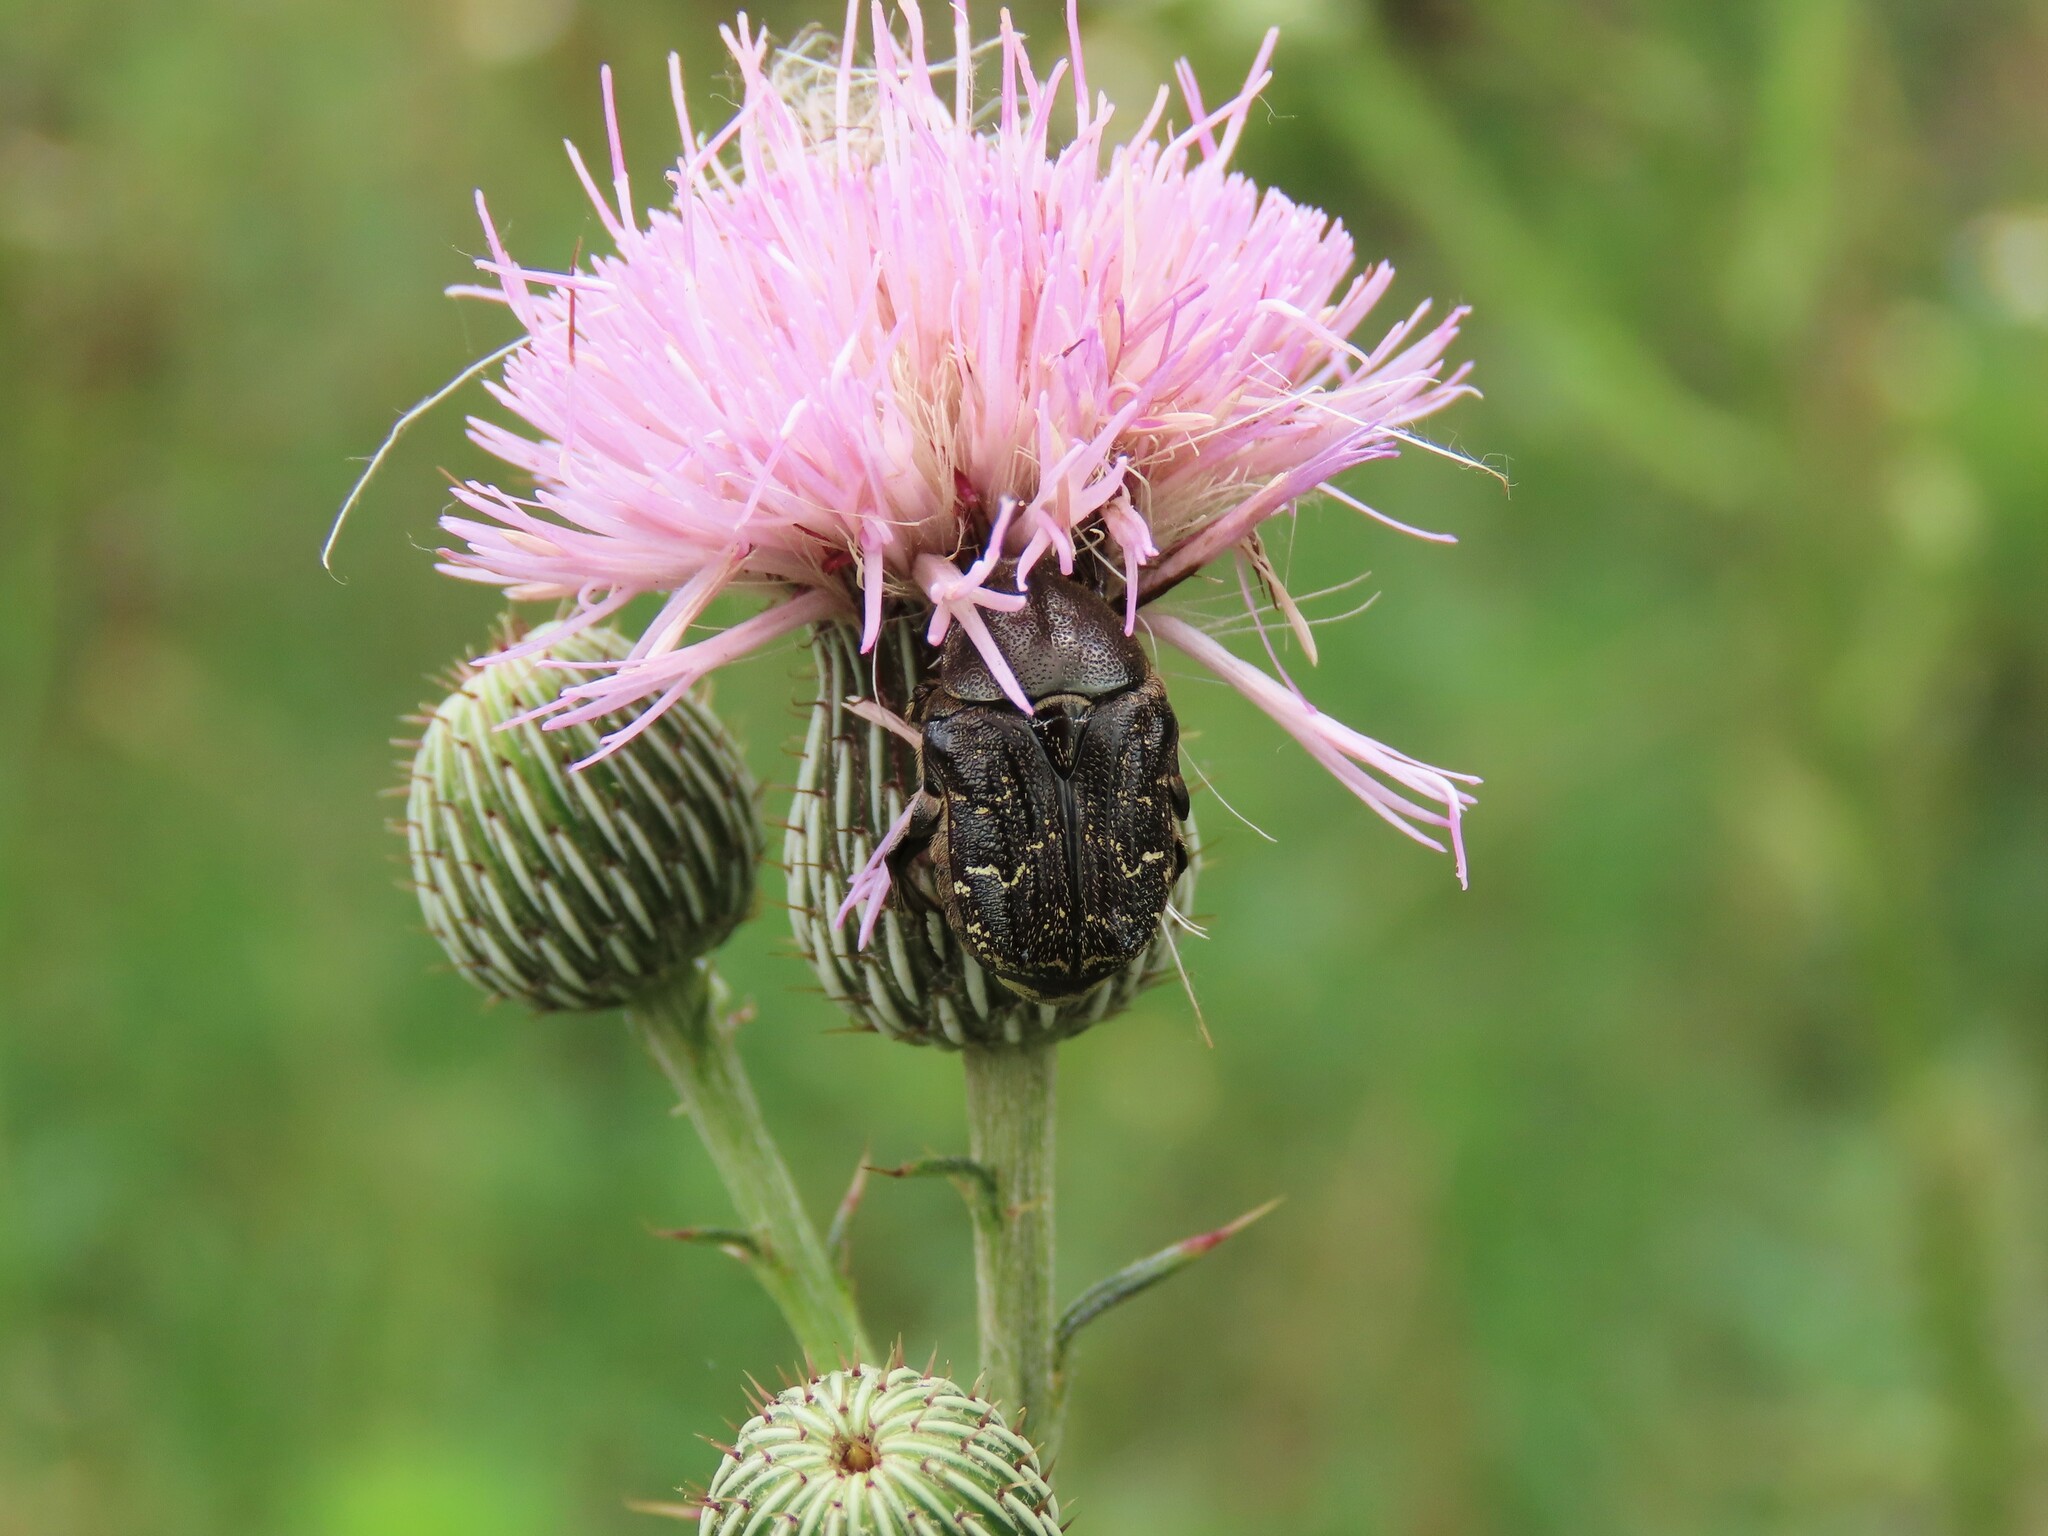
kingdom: Animalia
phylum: Arthropoda
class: Insecta
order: Coleoptera
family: Scarabaeidae
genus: Euphoria
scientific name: Euphoria sepulcralis
